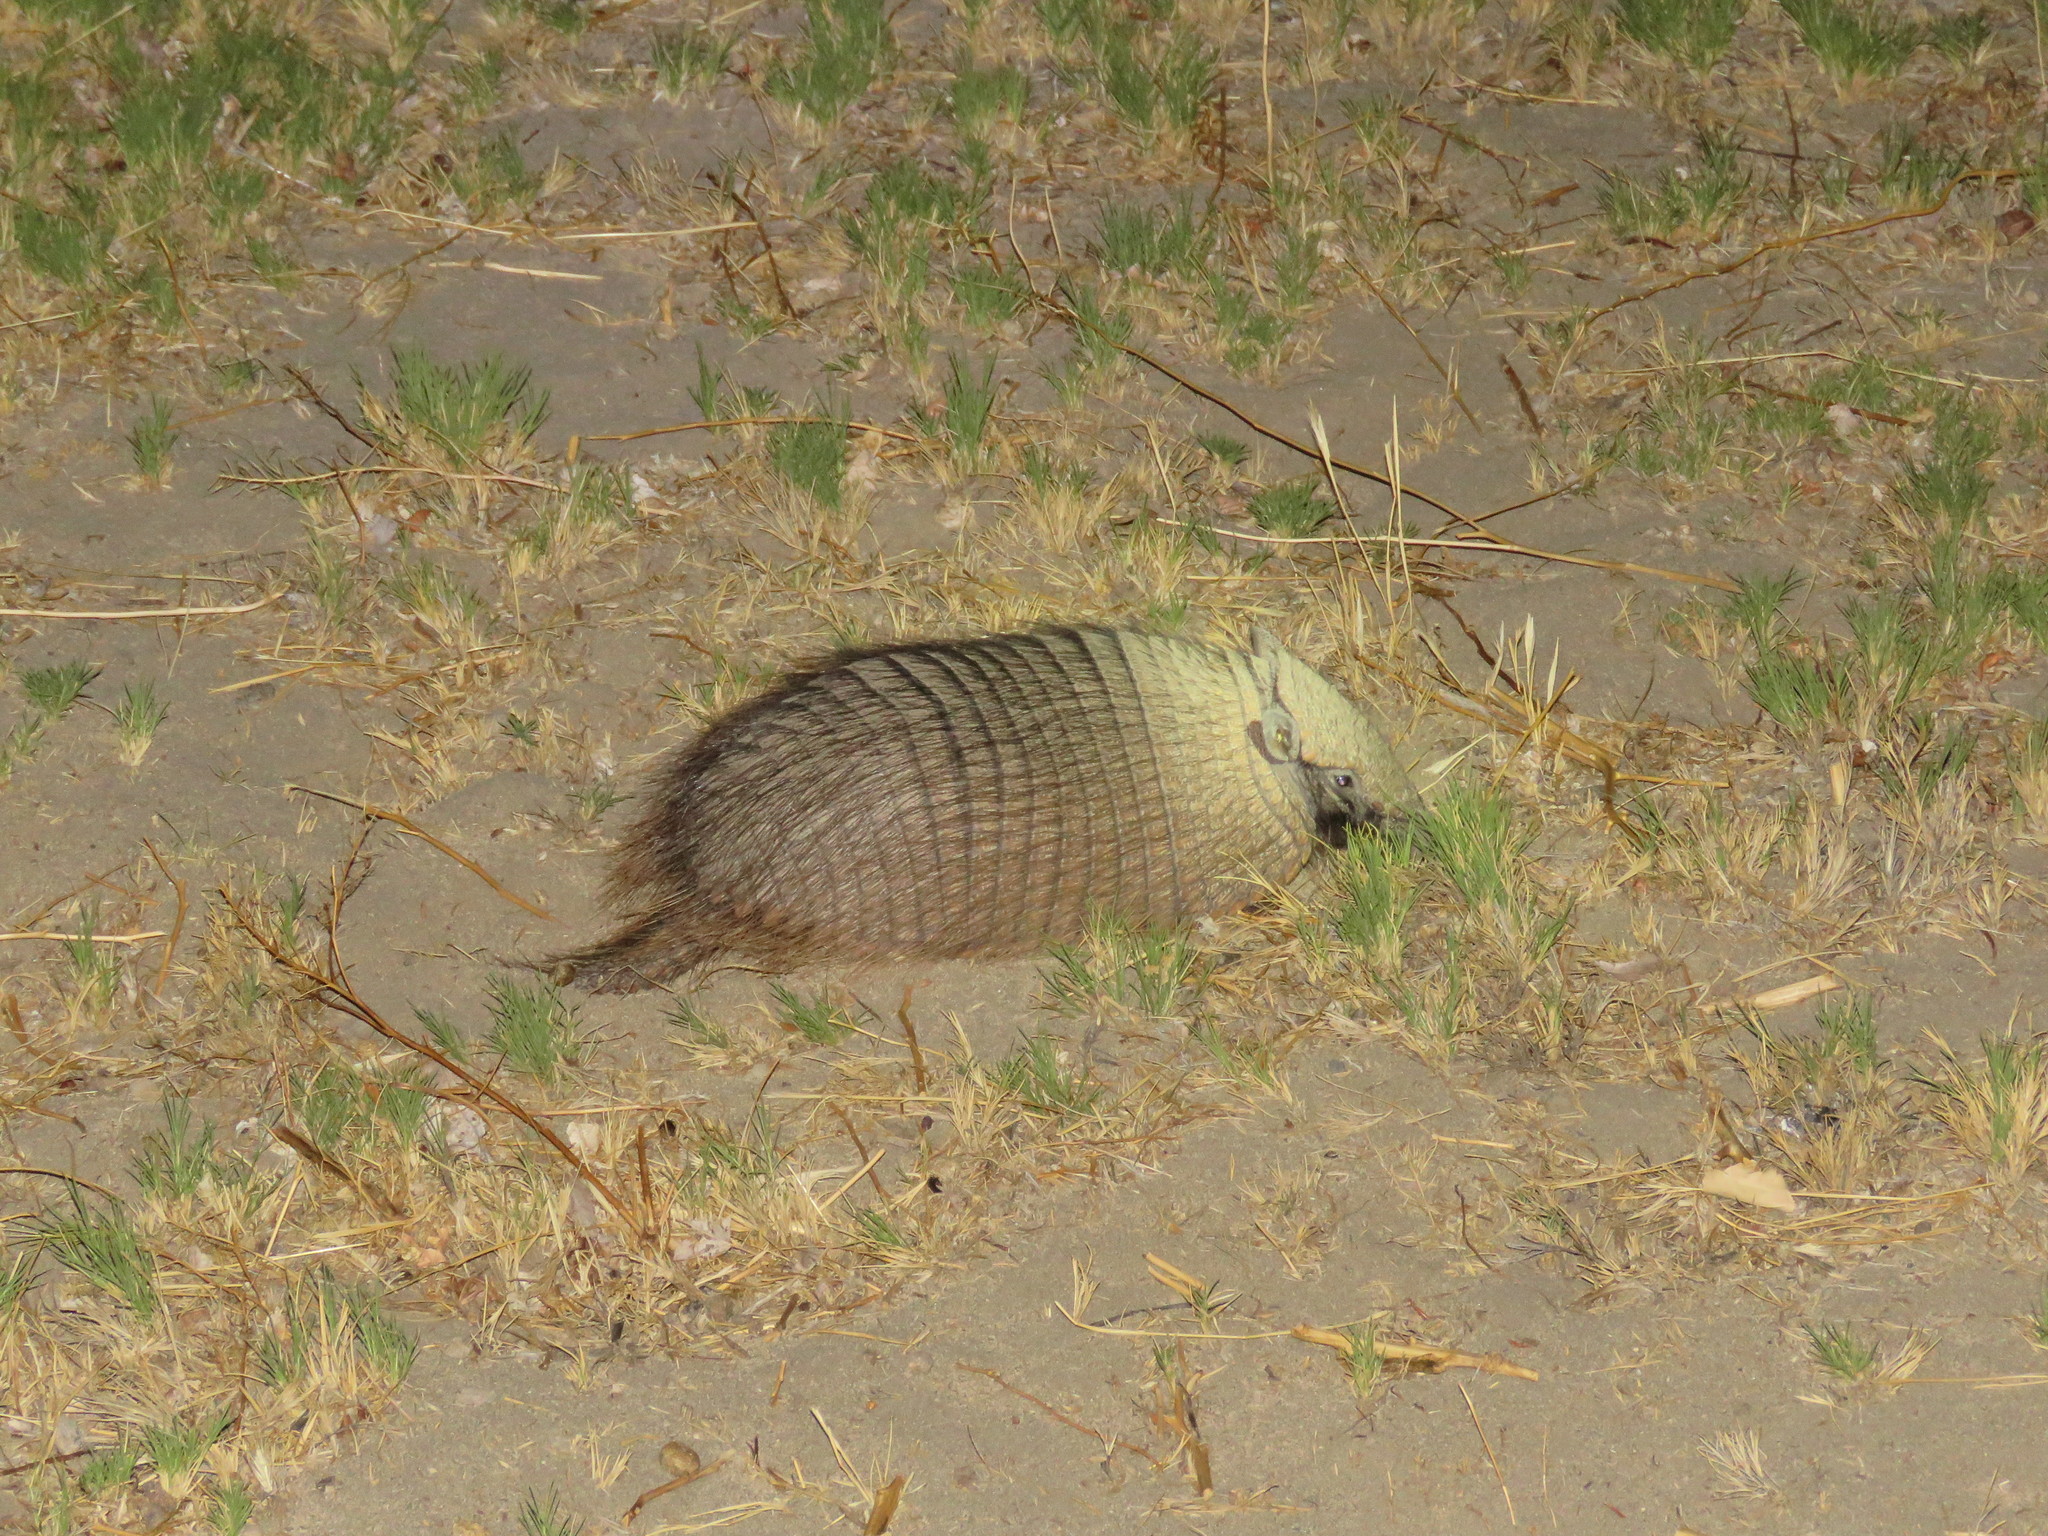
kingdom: Animalia
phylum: Chordata
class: Mammalia
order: Cingulata
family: Dasypodidae
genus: Chaetophractus
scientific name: Chaetophractus villosus
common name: Big hairy armadillo
